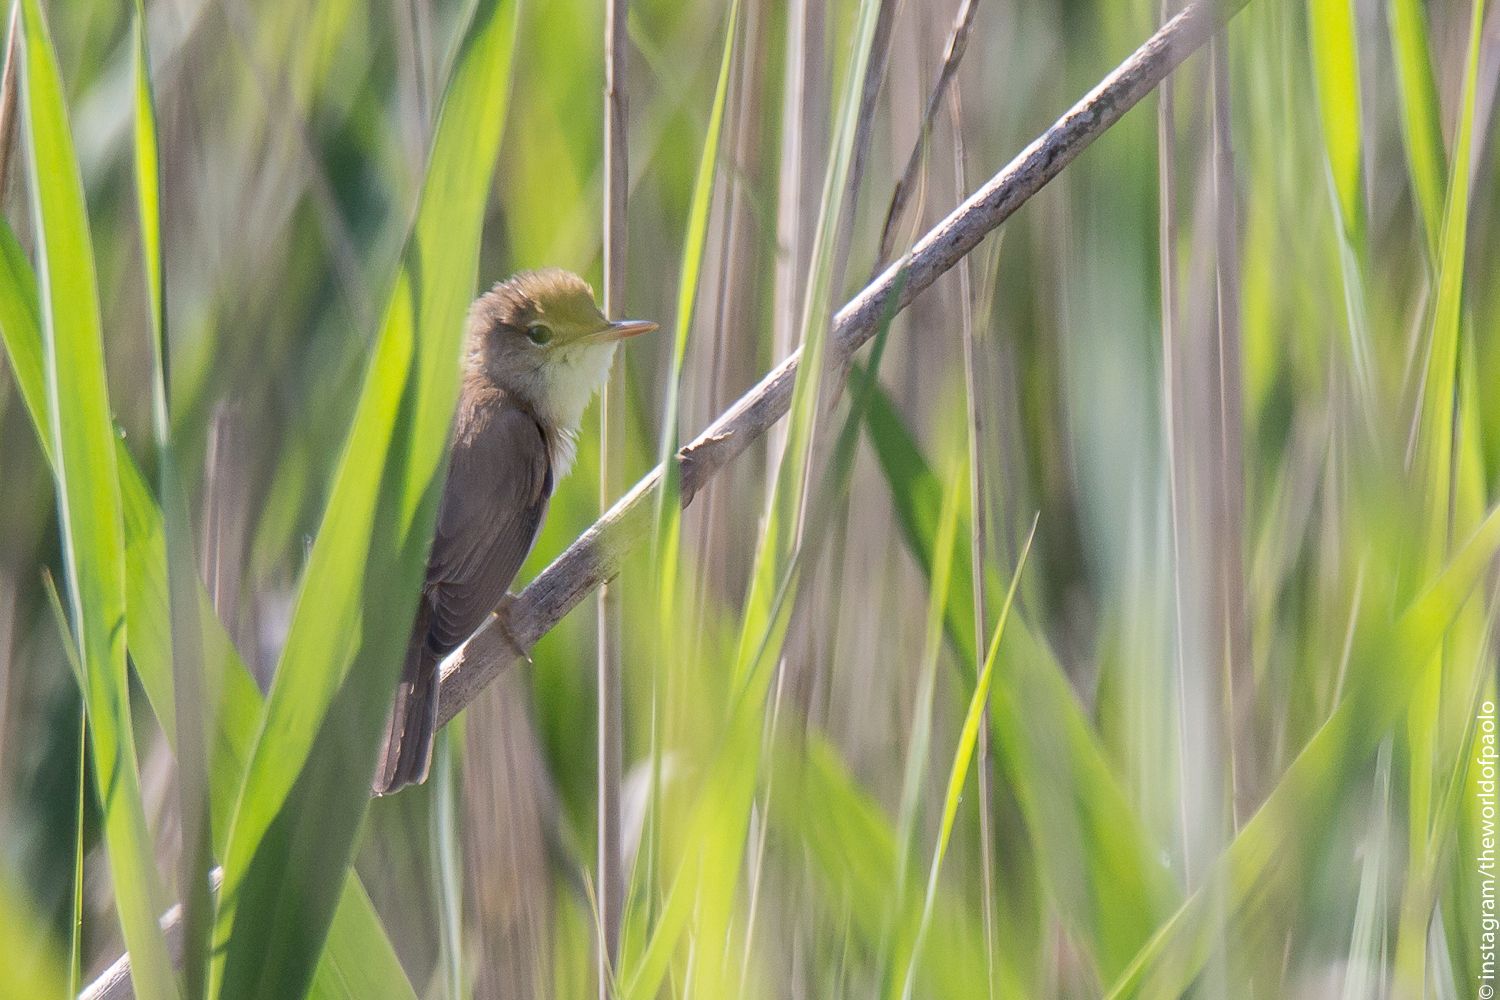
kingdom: Animalia
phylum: Chordata
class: Aves
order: Passeriformes
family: Acrocephalidae
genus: Acrocephalus
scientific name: Acrocephalus scirpaceus
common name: Eurasian reed warbler
